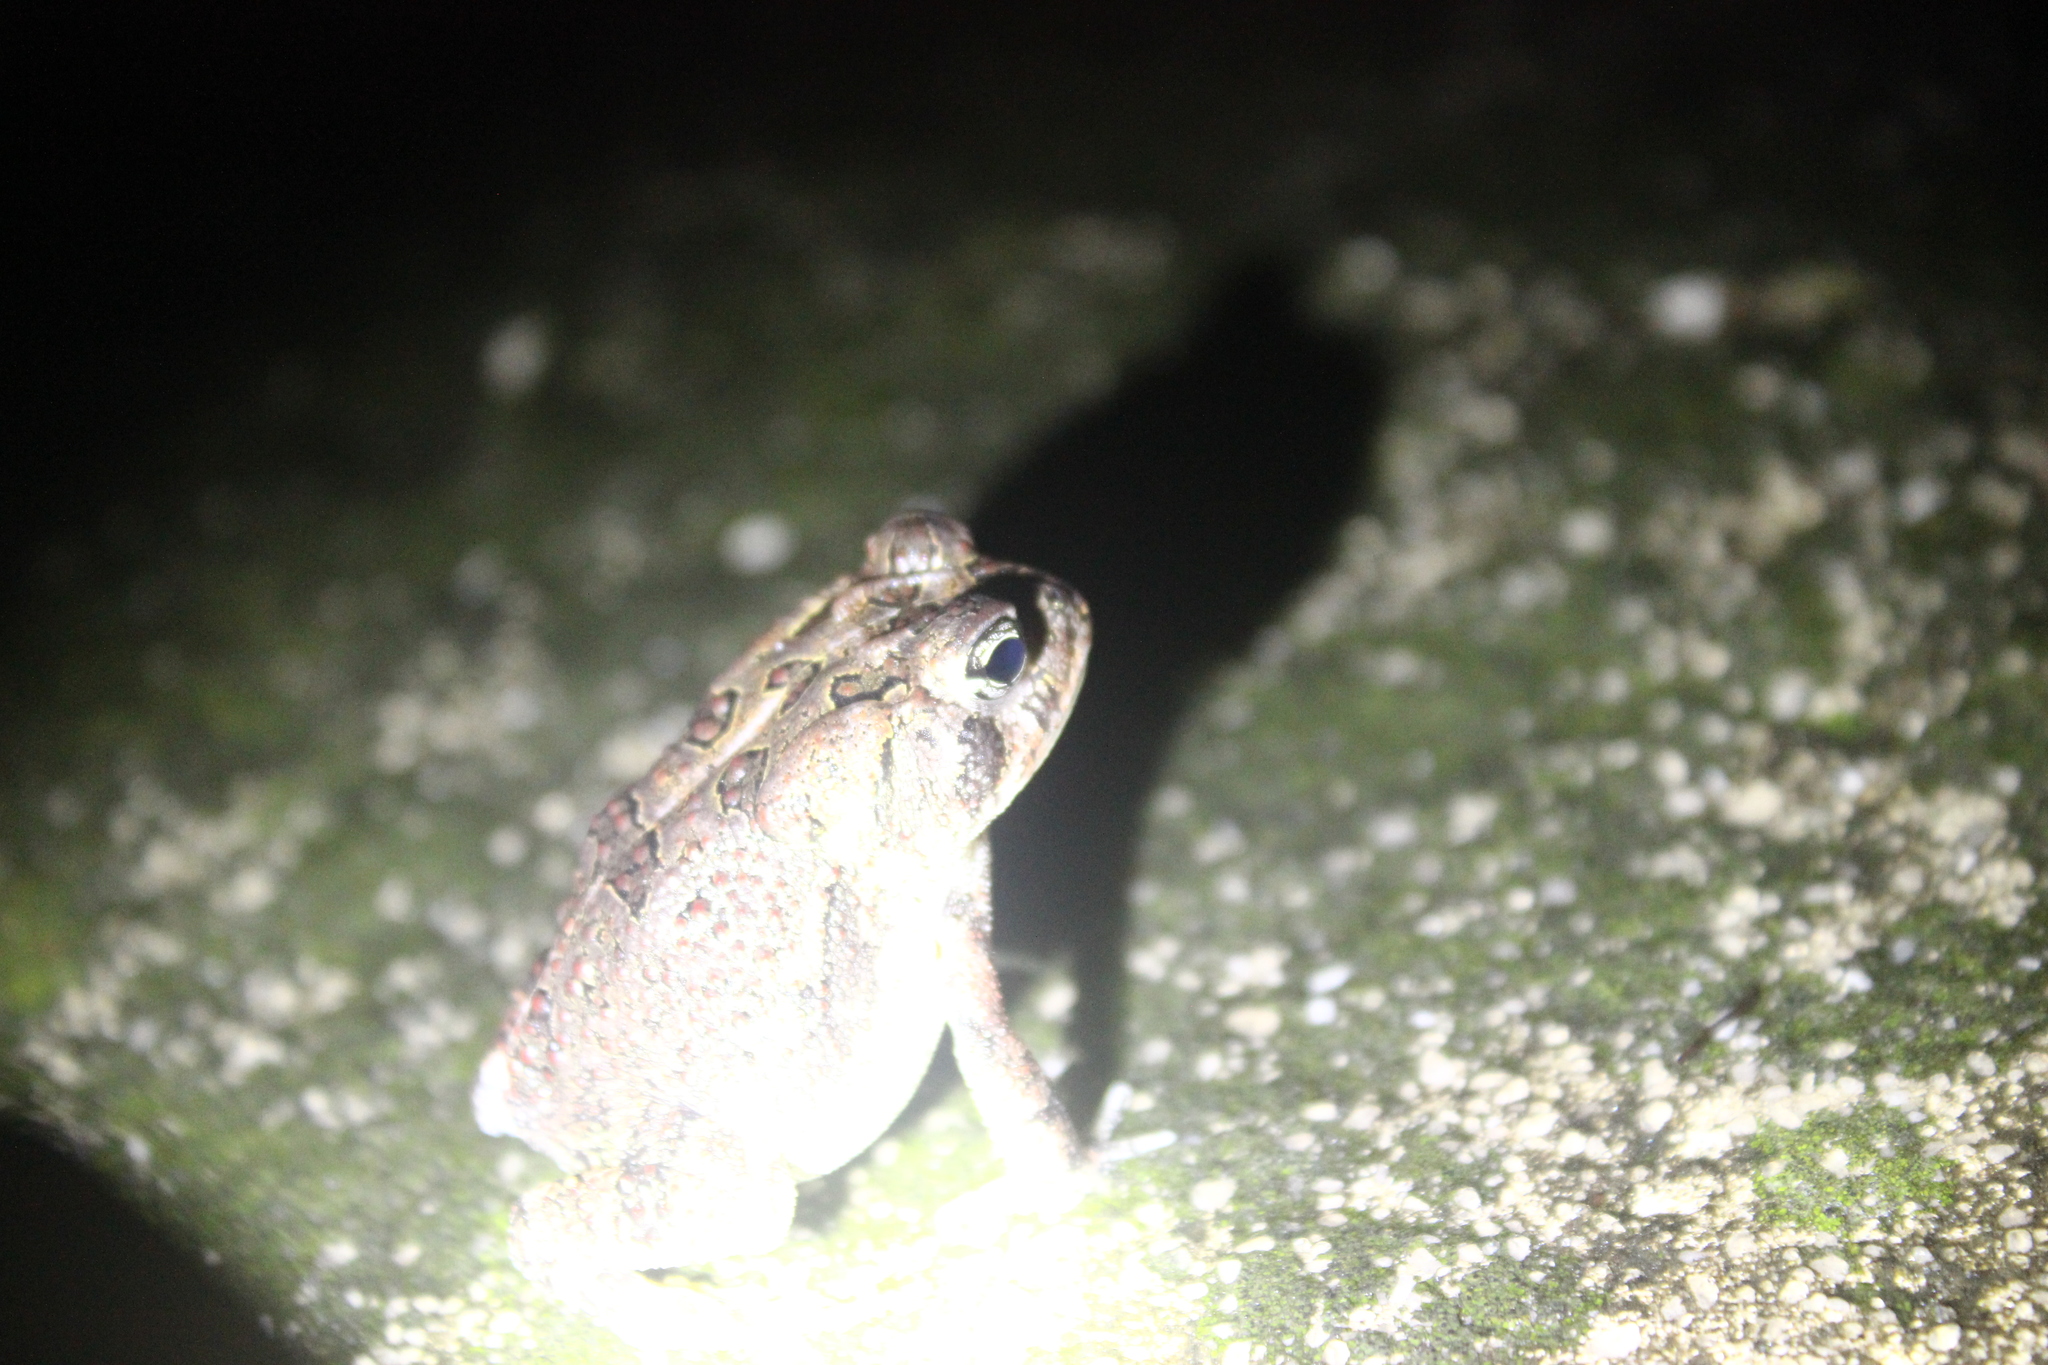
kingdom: Animalia
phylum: Chordata
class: Amphibia
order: Anura
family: Bufonidae
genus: Anaxyrus
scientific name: Anaxyrus terrestris
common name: Southern toad
